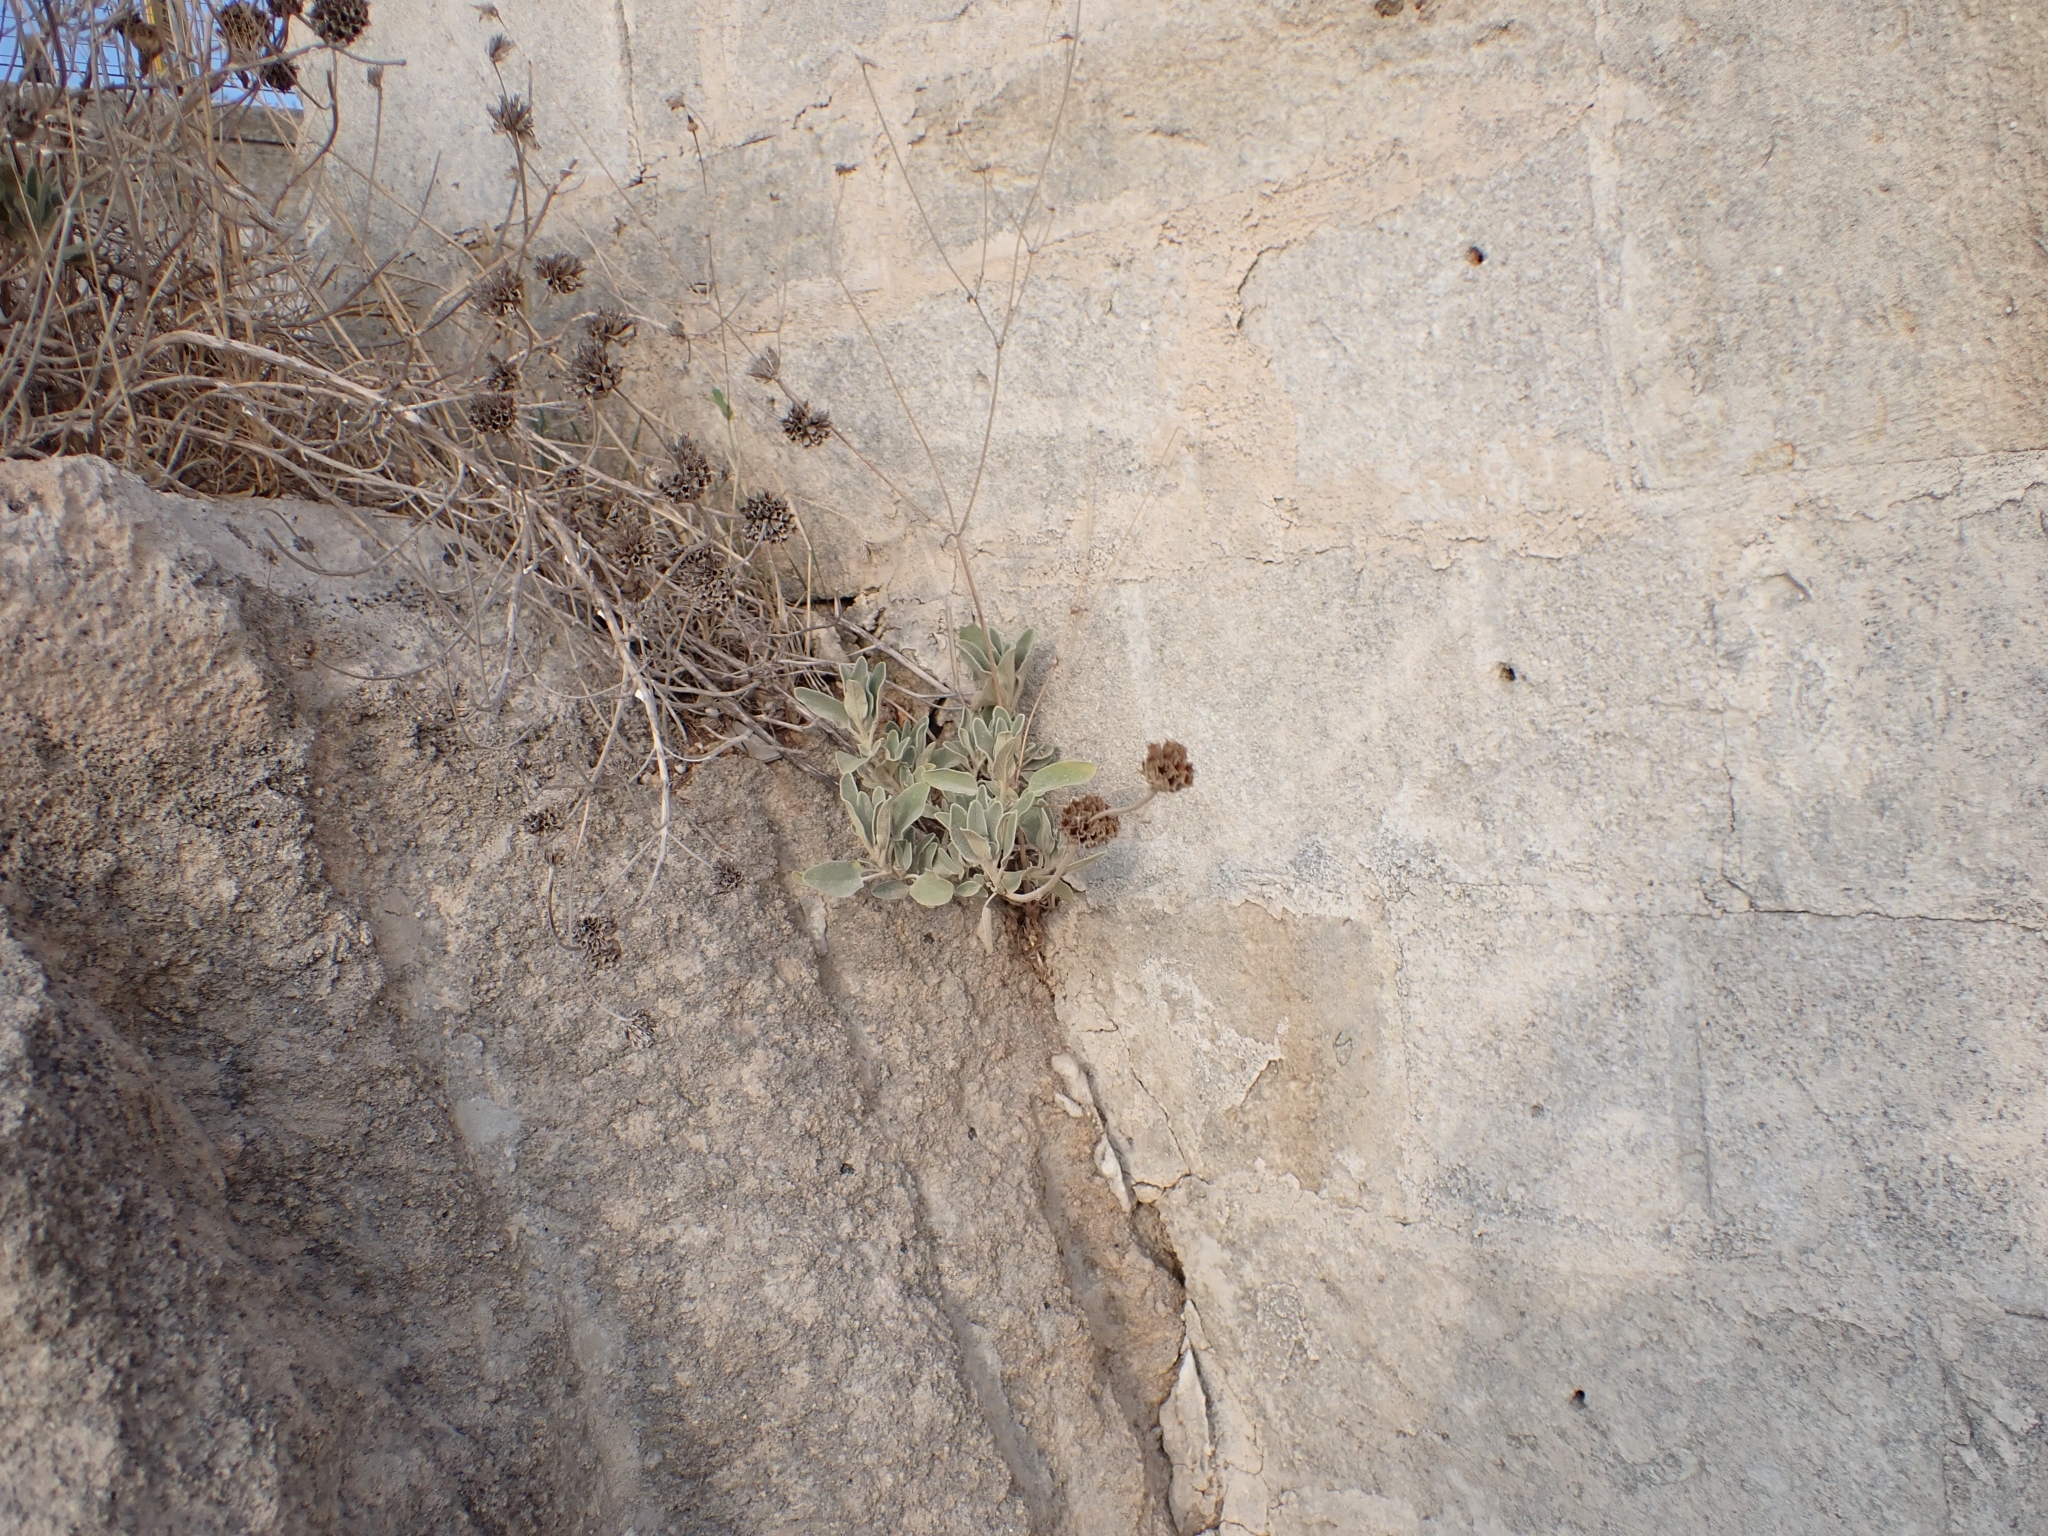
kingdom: Plantae
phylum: Tracheophyta
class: Magnoliopsida
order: Lamiales
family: Lamiaceae
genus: Phlomis
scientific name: Phlomis fruticosa
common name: Jerusalem sage
